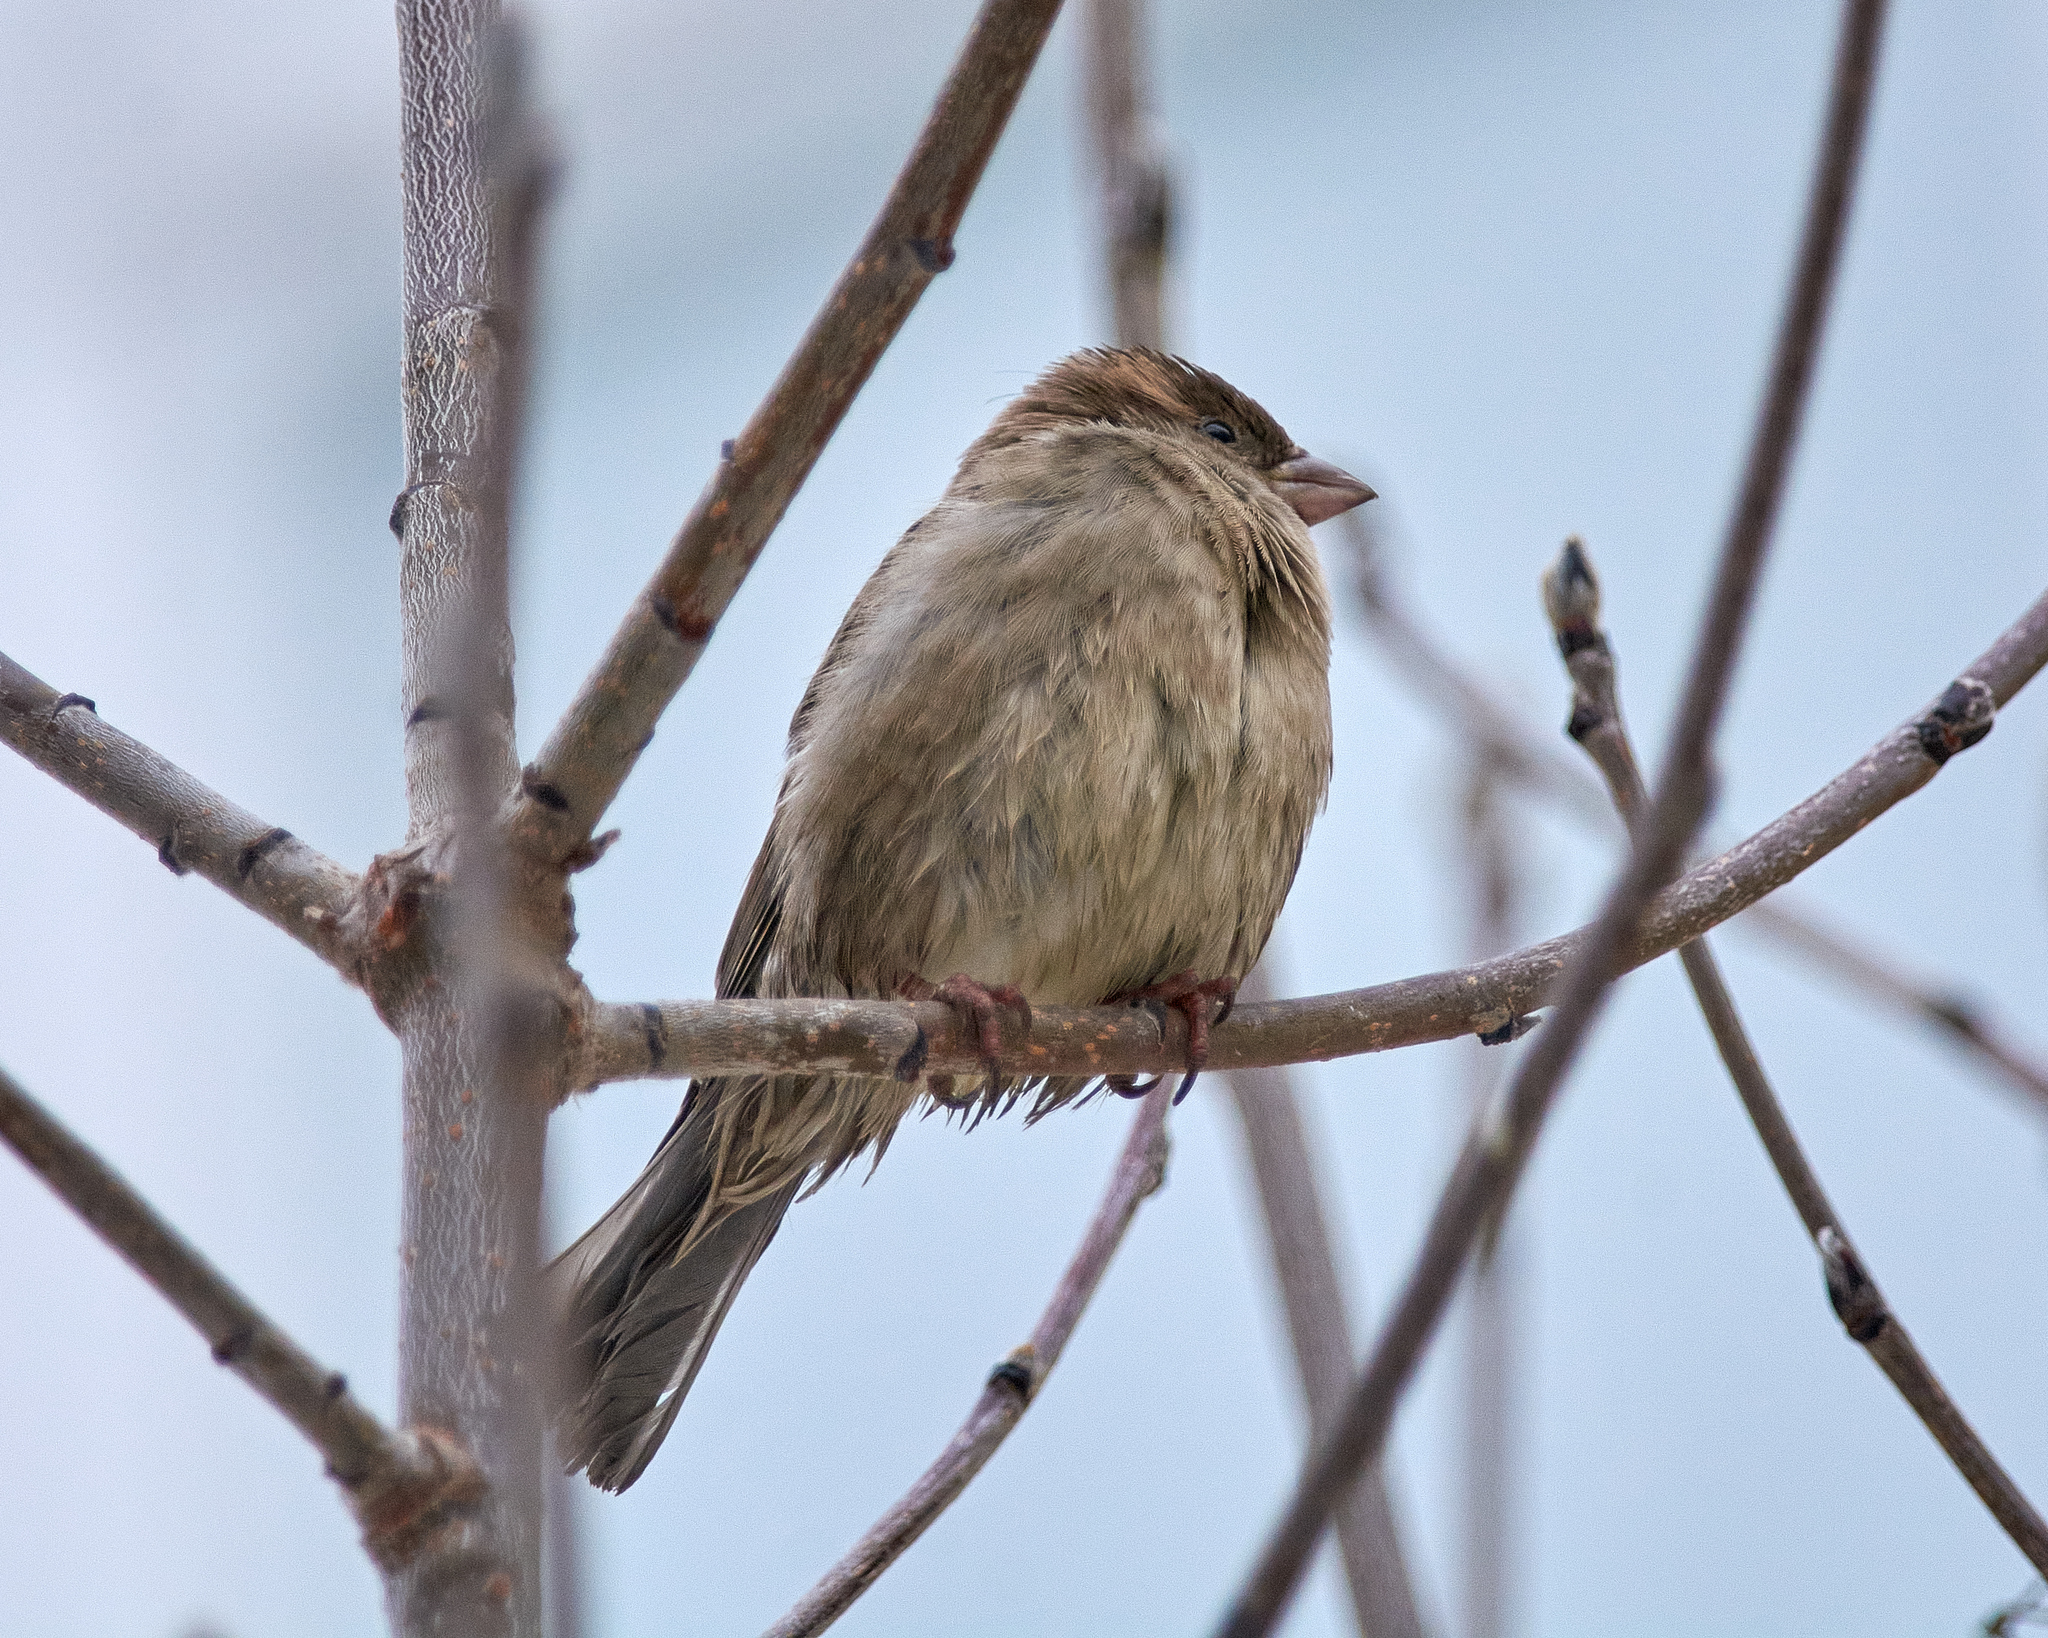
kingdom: Animalia
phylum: Chordata
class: Aves
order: Passeriformes
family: Passeridae
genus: Passer
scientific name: Passer domesticus
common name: House sparrow
